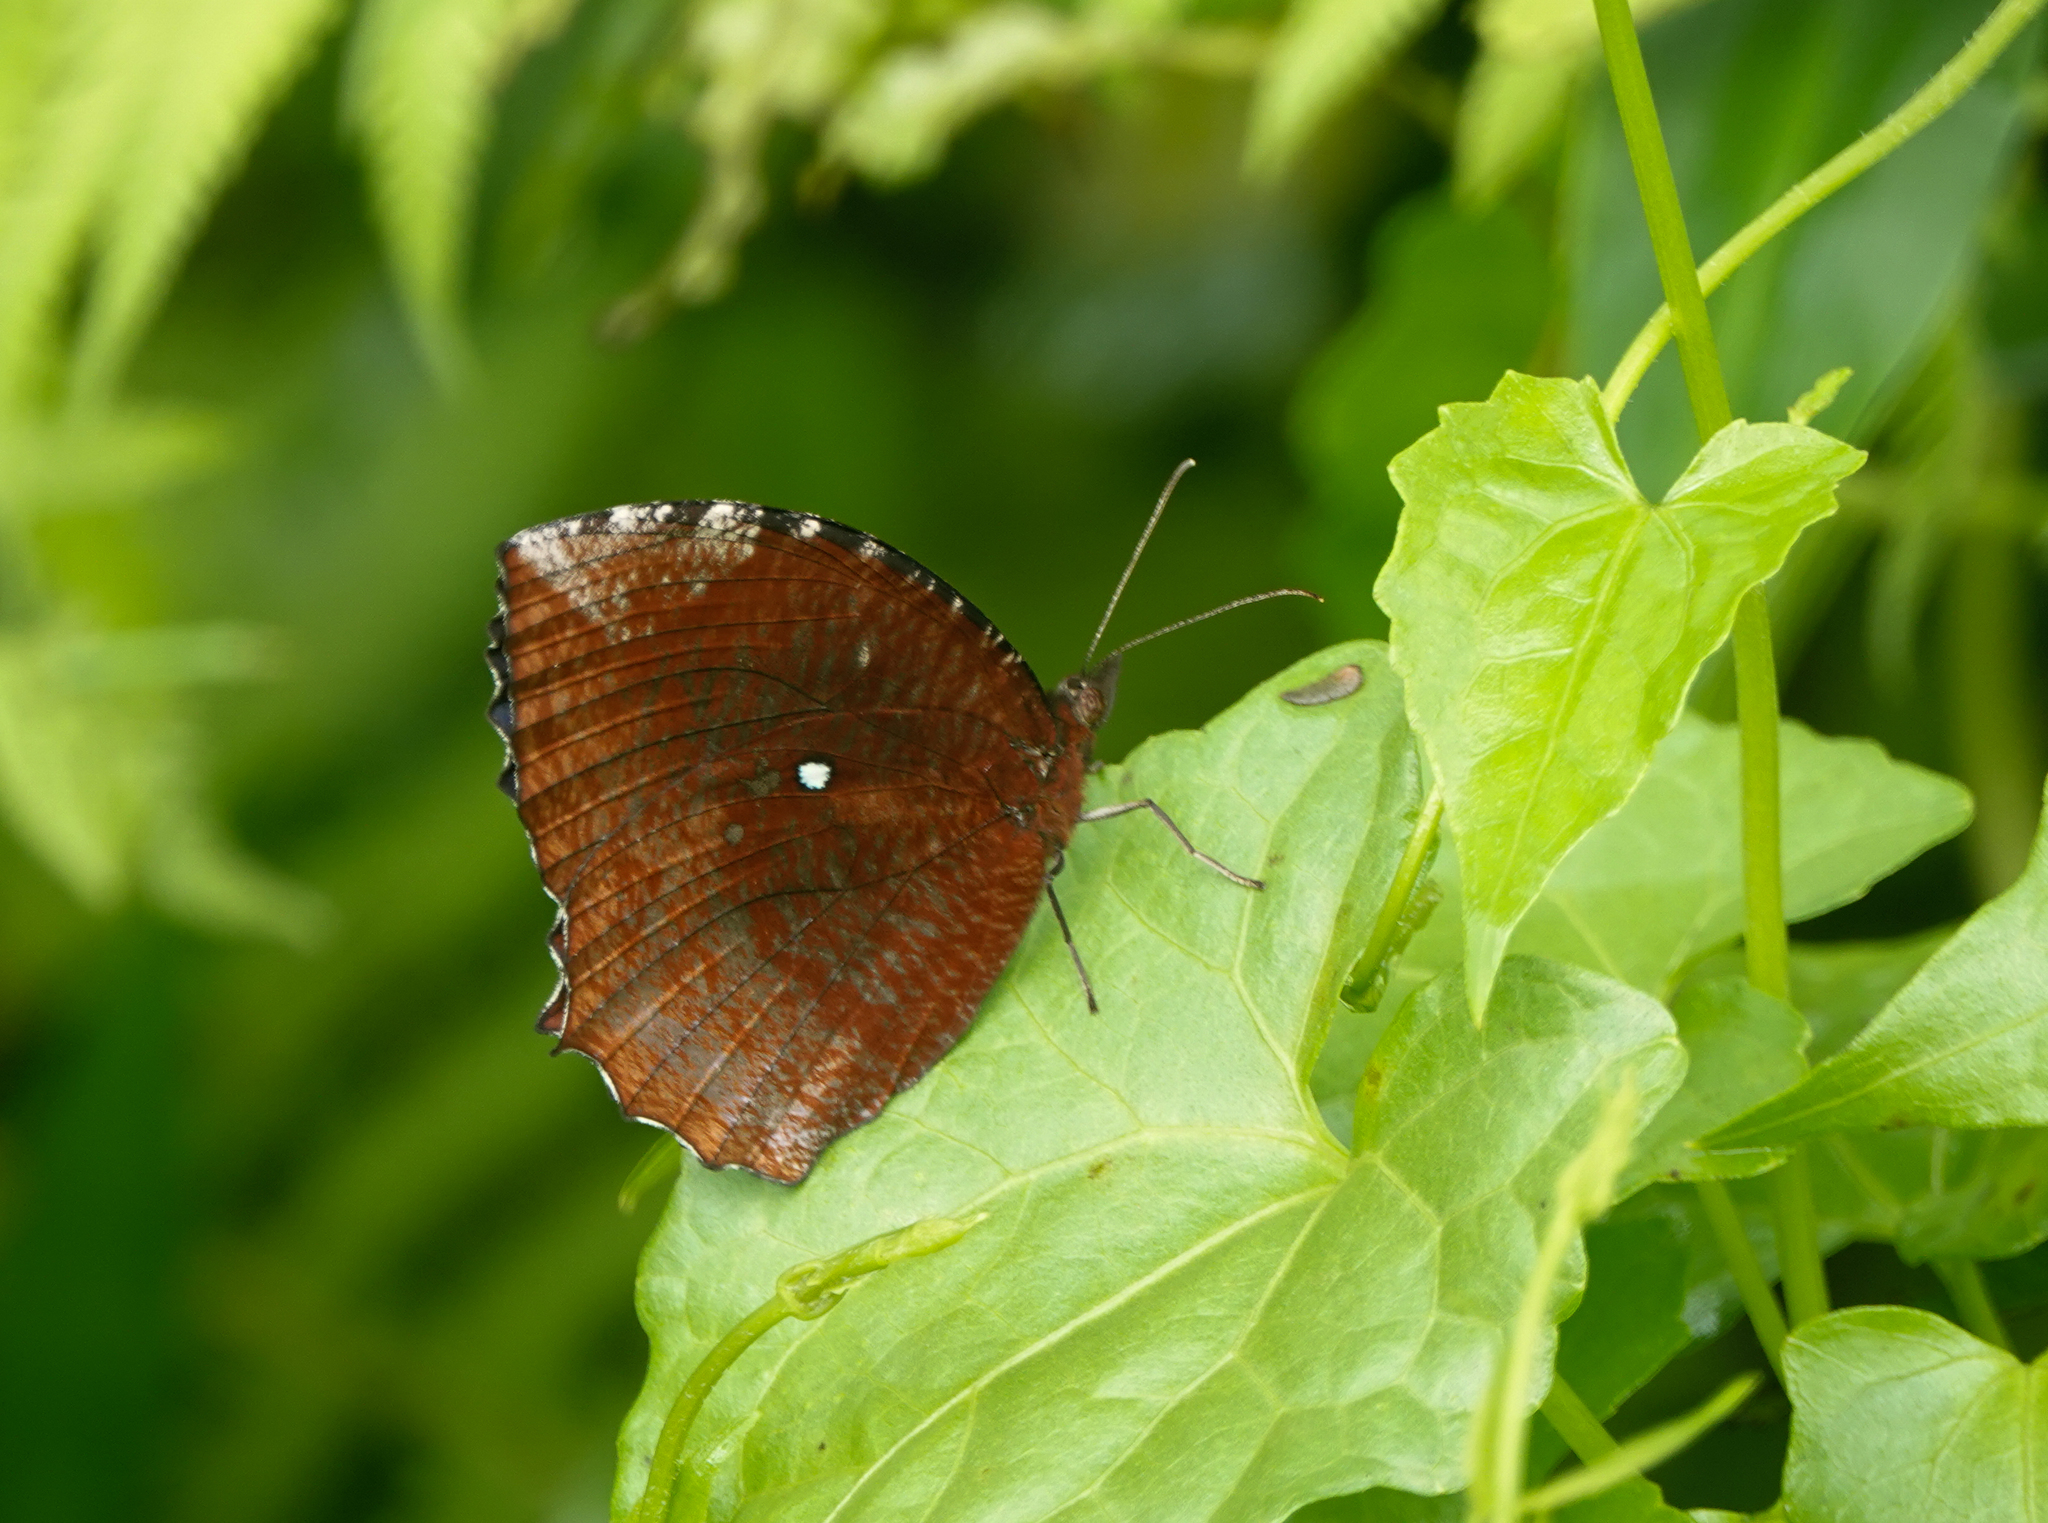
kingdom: Animalia
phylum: Arthropoda
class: Insecta
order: Lepidoptera
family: Nymphalidae
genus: Elymnias
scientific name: Elymnias hypermnestra
